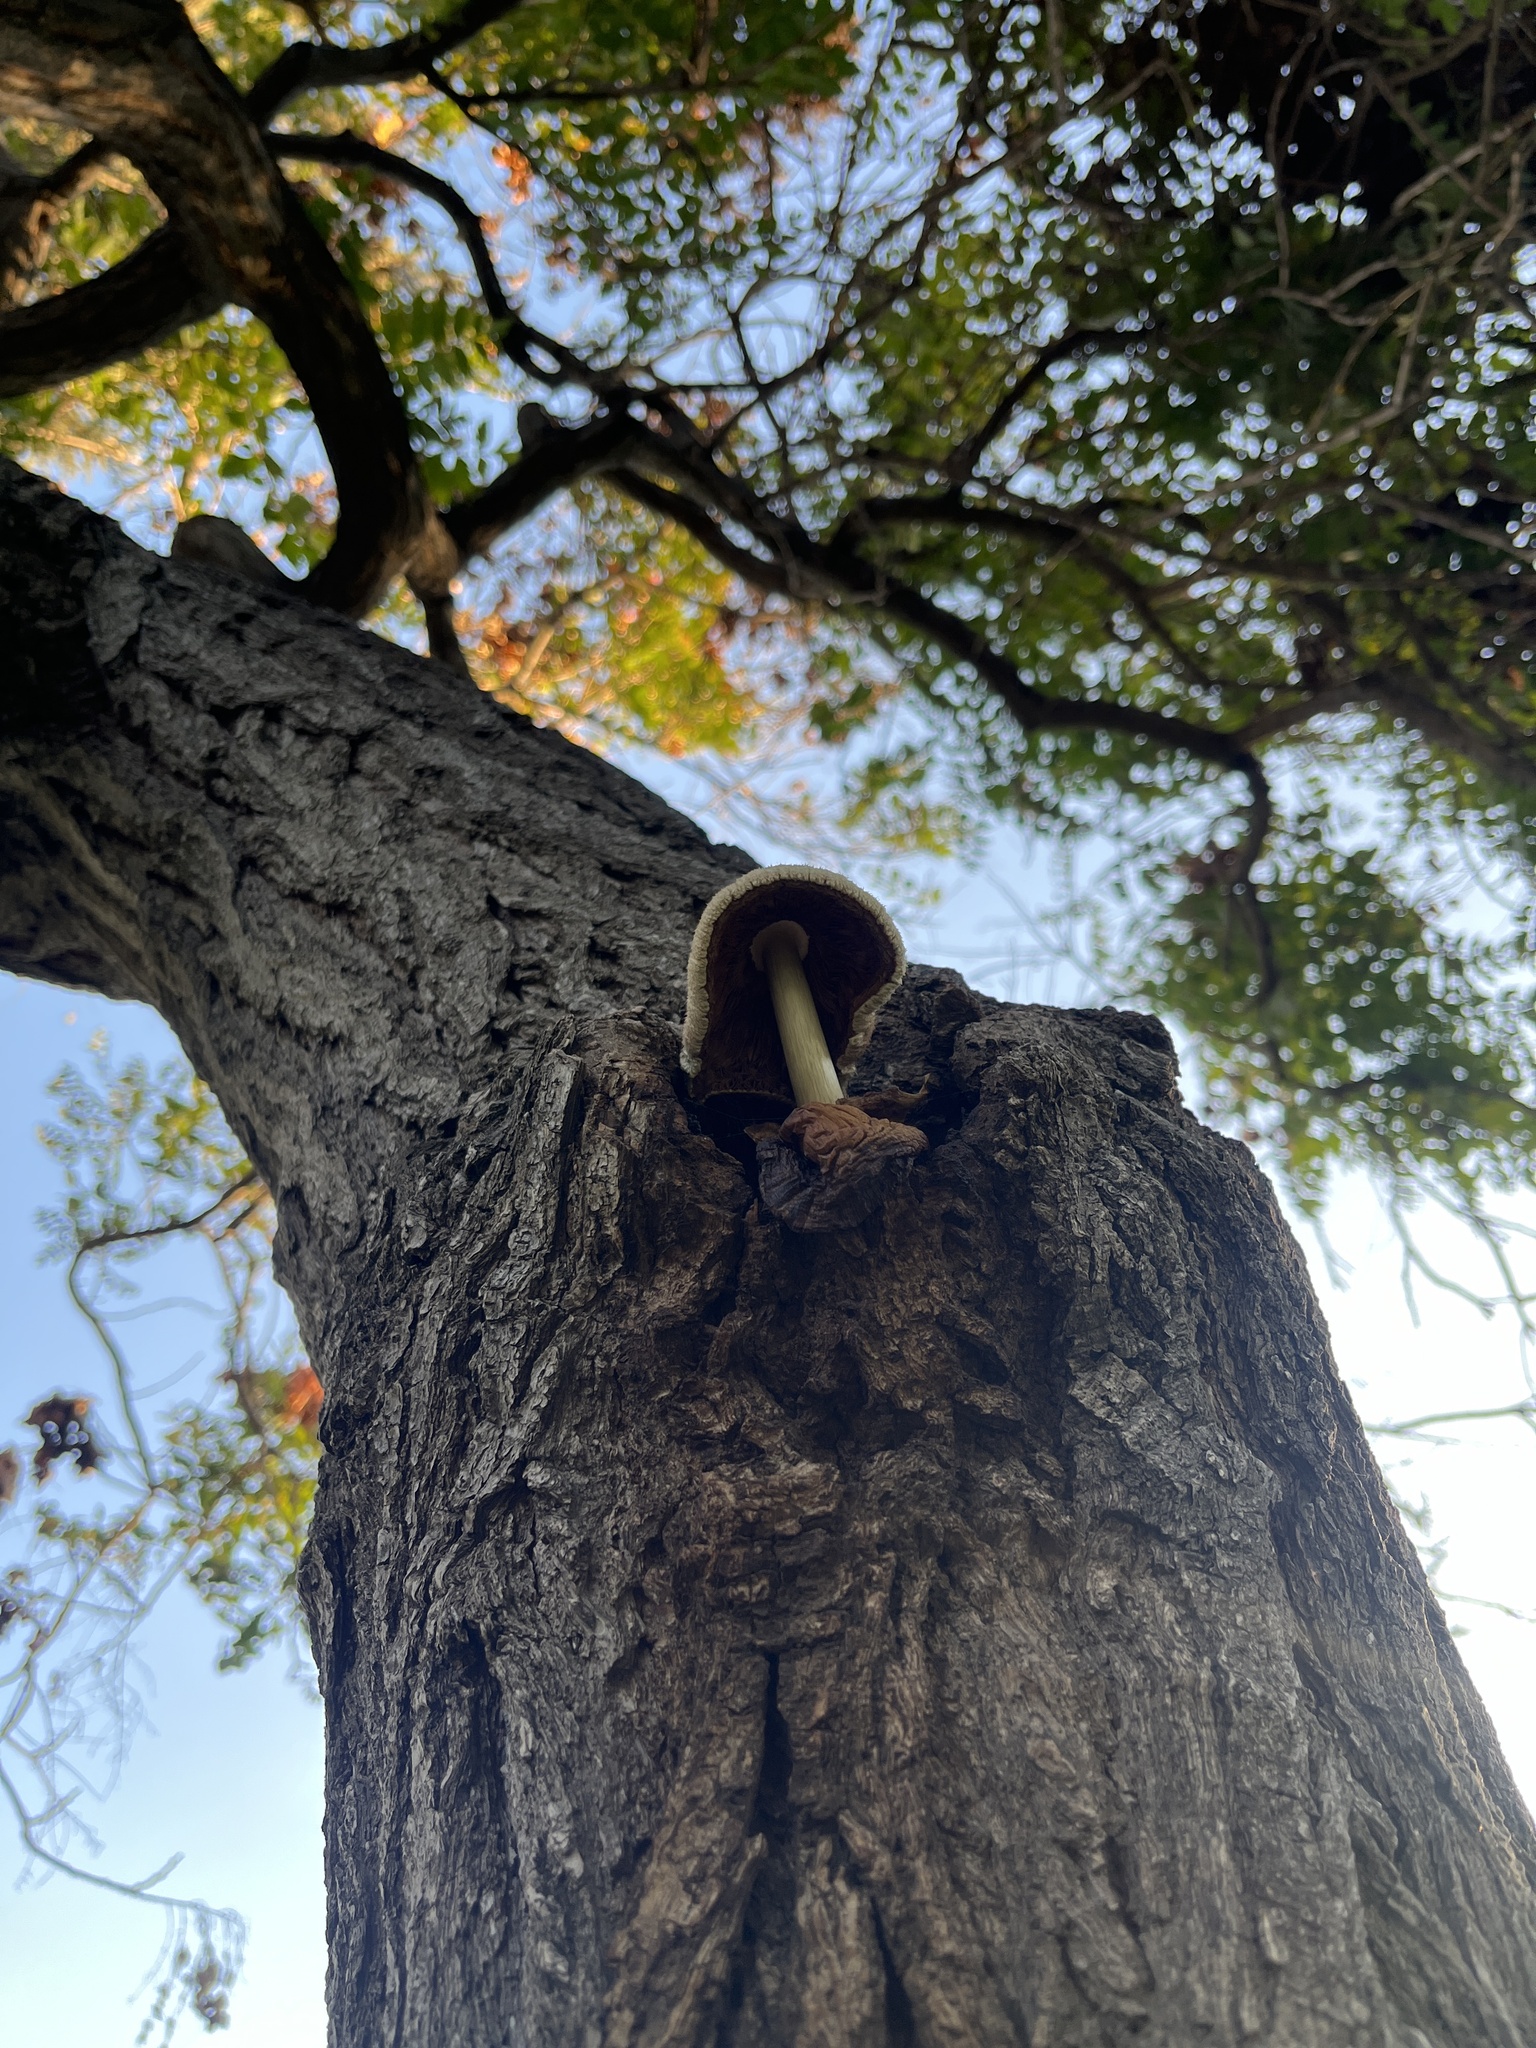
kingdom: Fungi
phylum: Basidiomycota
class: Agaricomycetes
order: Agaricales
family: Pluteaceae
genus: Volvariella
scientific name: Volvariella bombycina
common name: Silky rosegill
